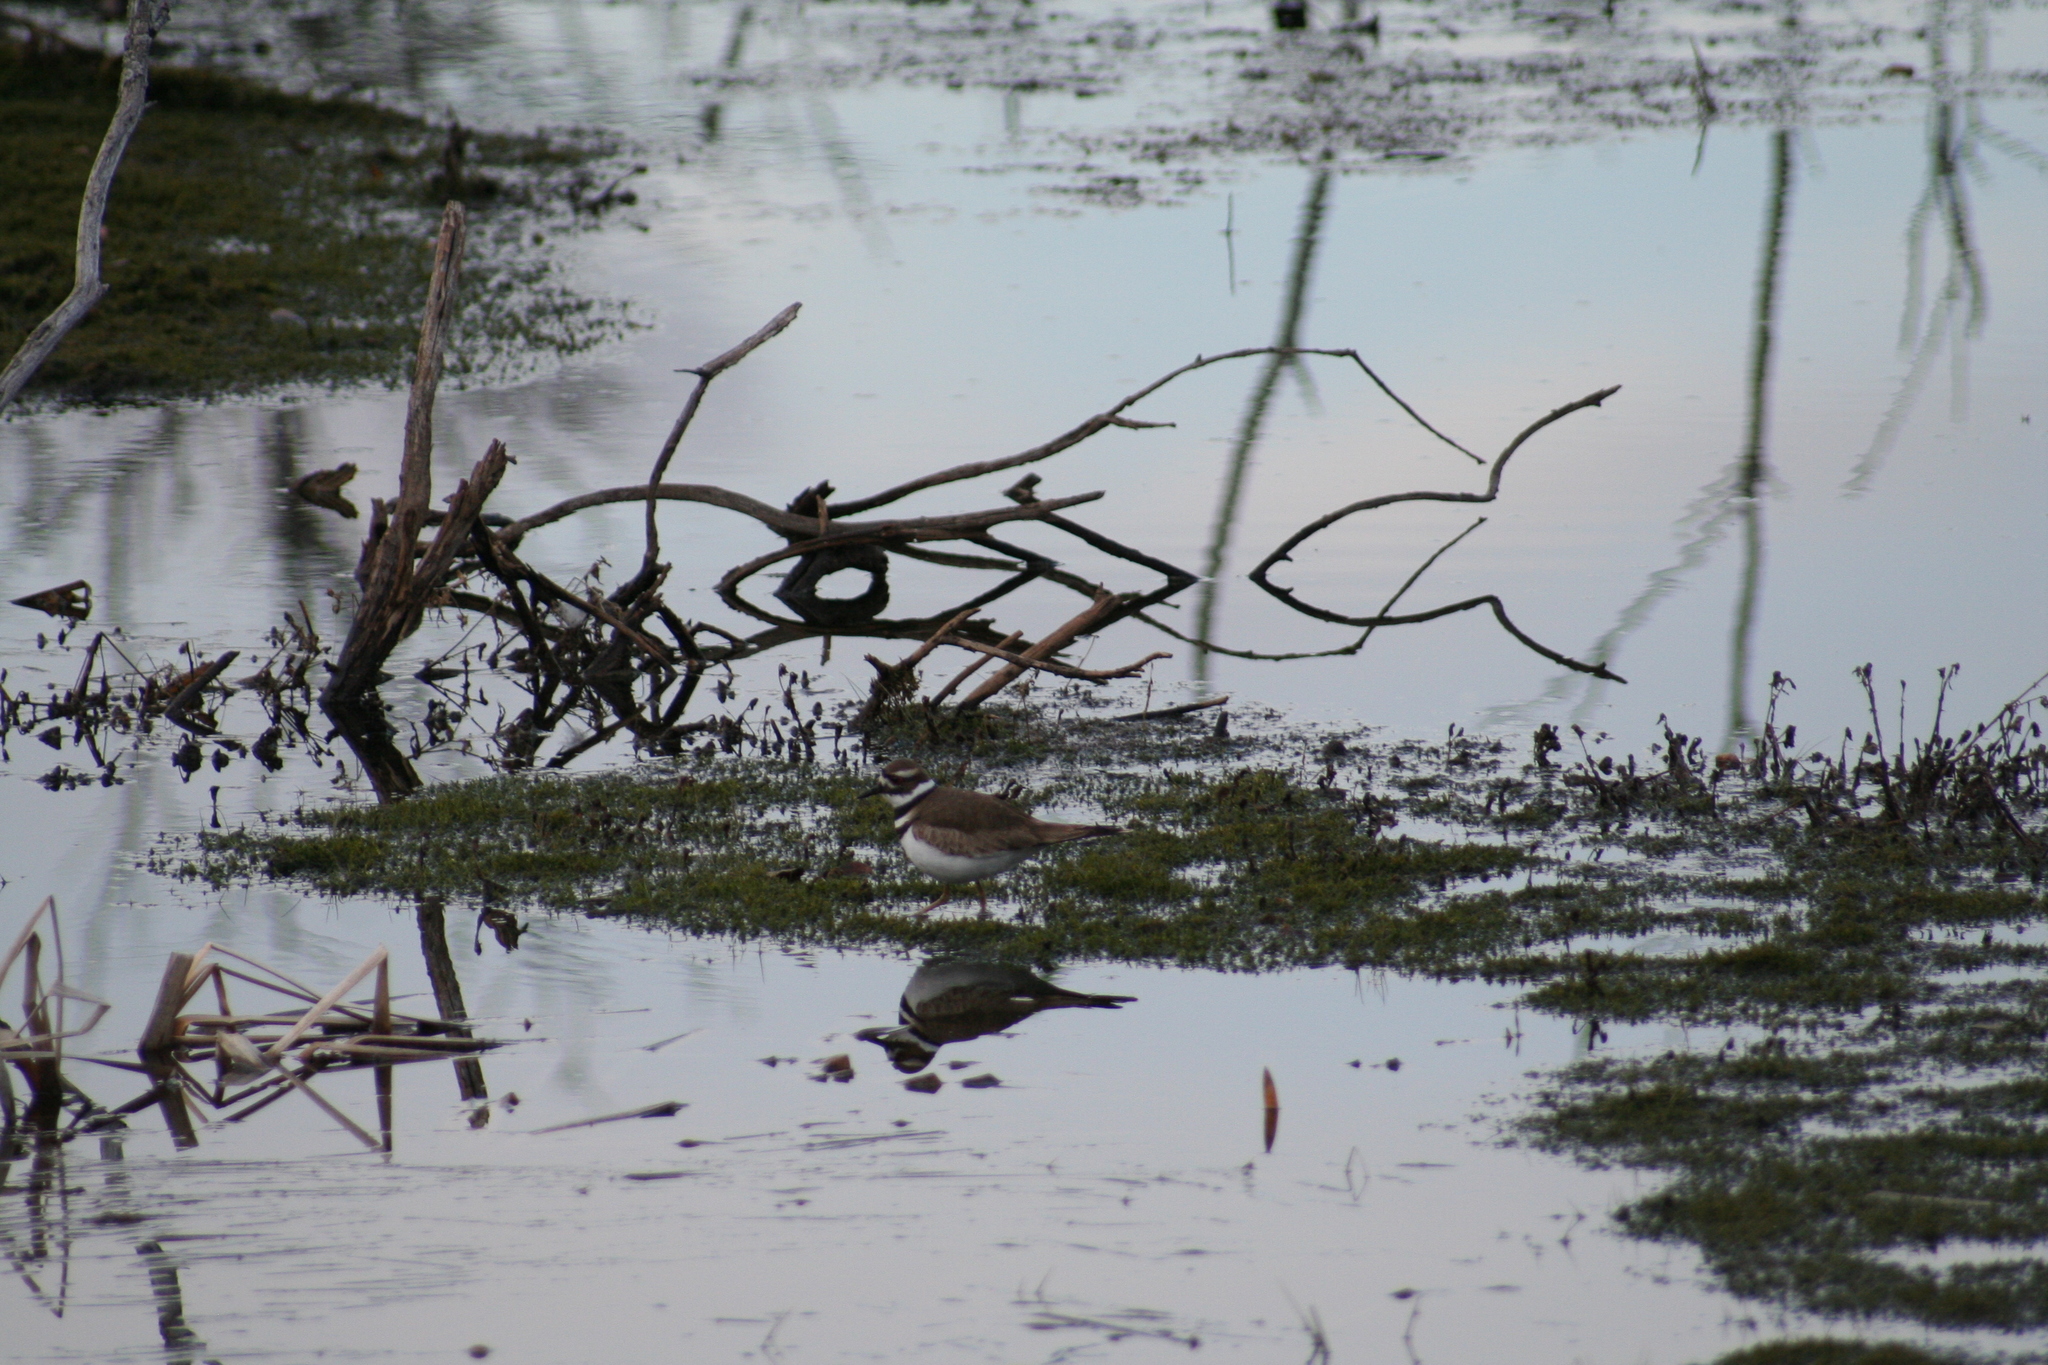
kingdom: Animalia
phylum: Chordata
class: Aves
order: Charadriiformes
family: Charadriidae
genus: Charadrius
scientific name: Charadrius vociferus
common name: Killdeer
